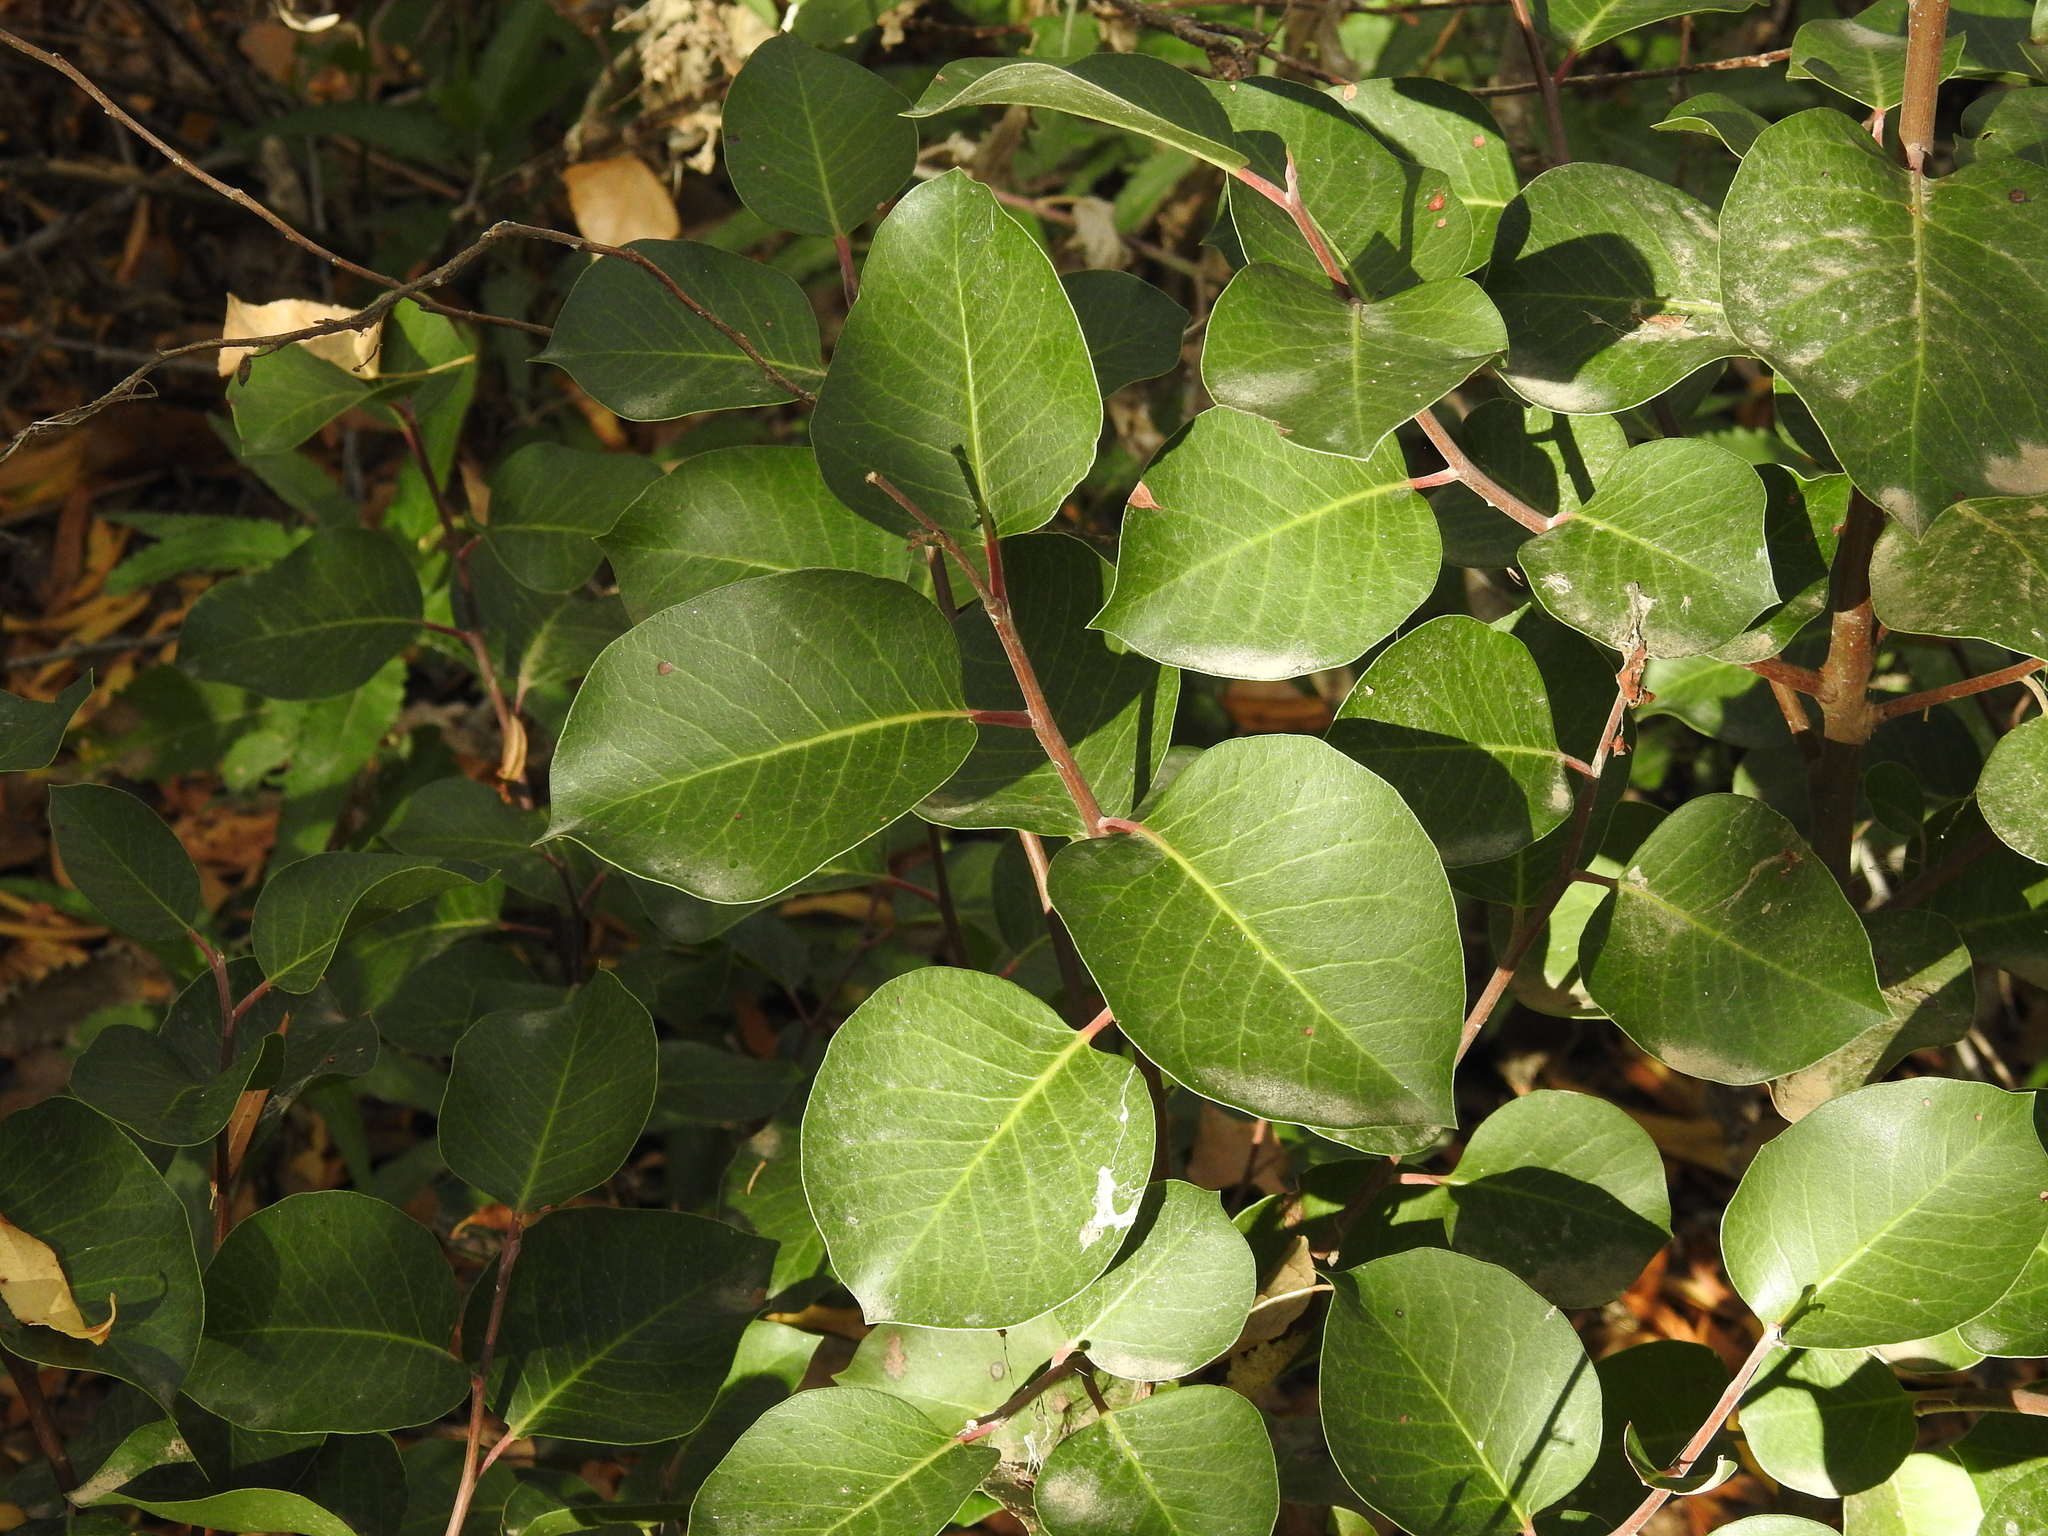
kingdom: Plantae
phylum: Tracheophyta
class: Magnoliopsida
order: Sapindales
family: Anacardiaceae
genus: Rhus
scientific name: Rhus ovata
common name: Sugar sumac
